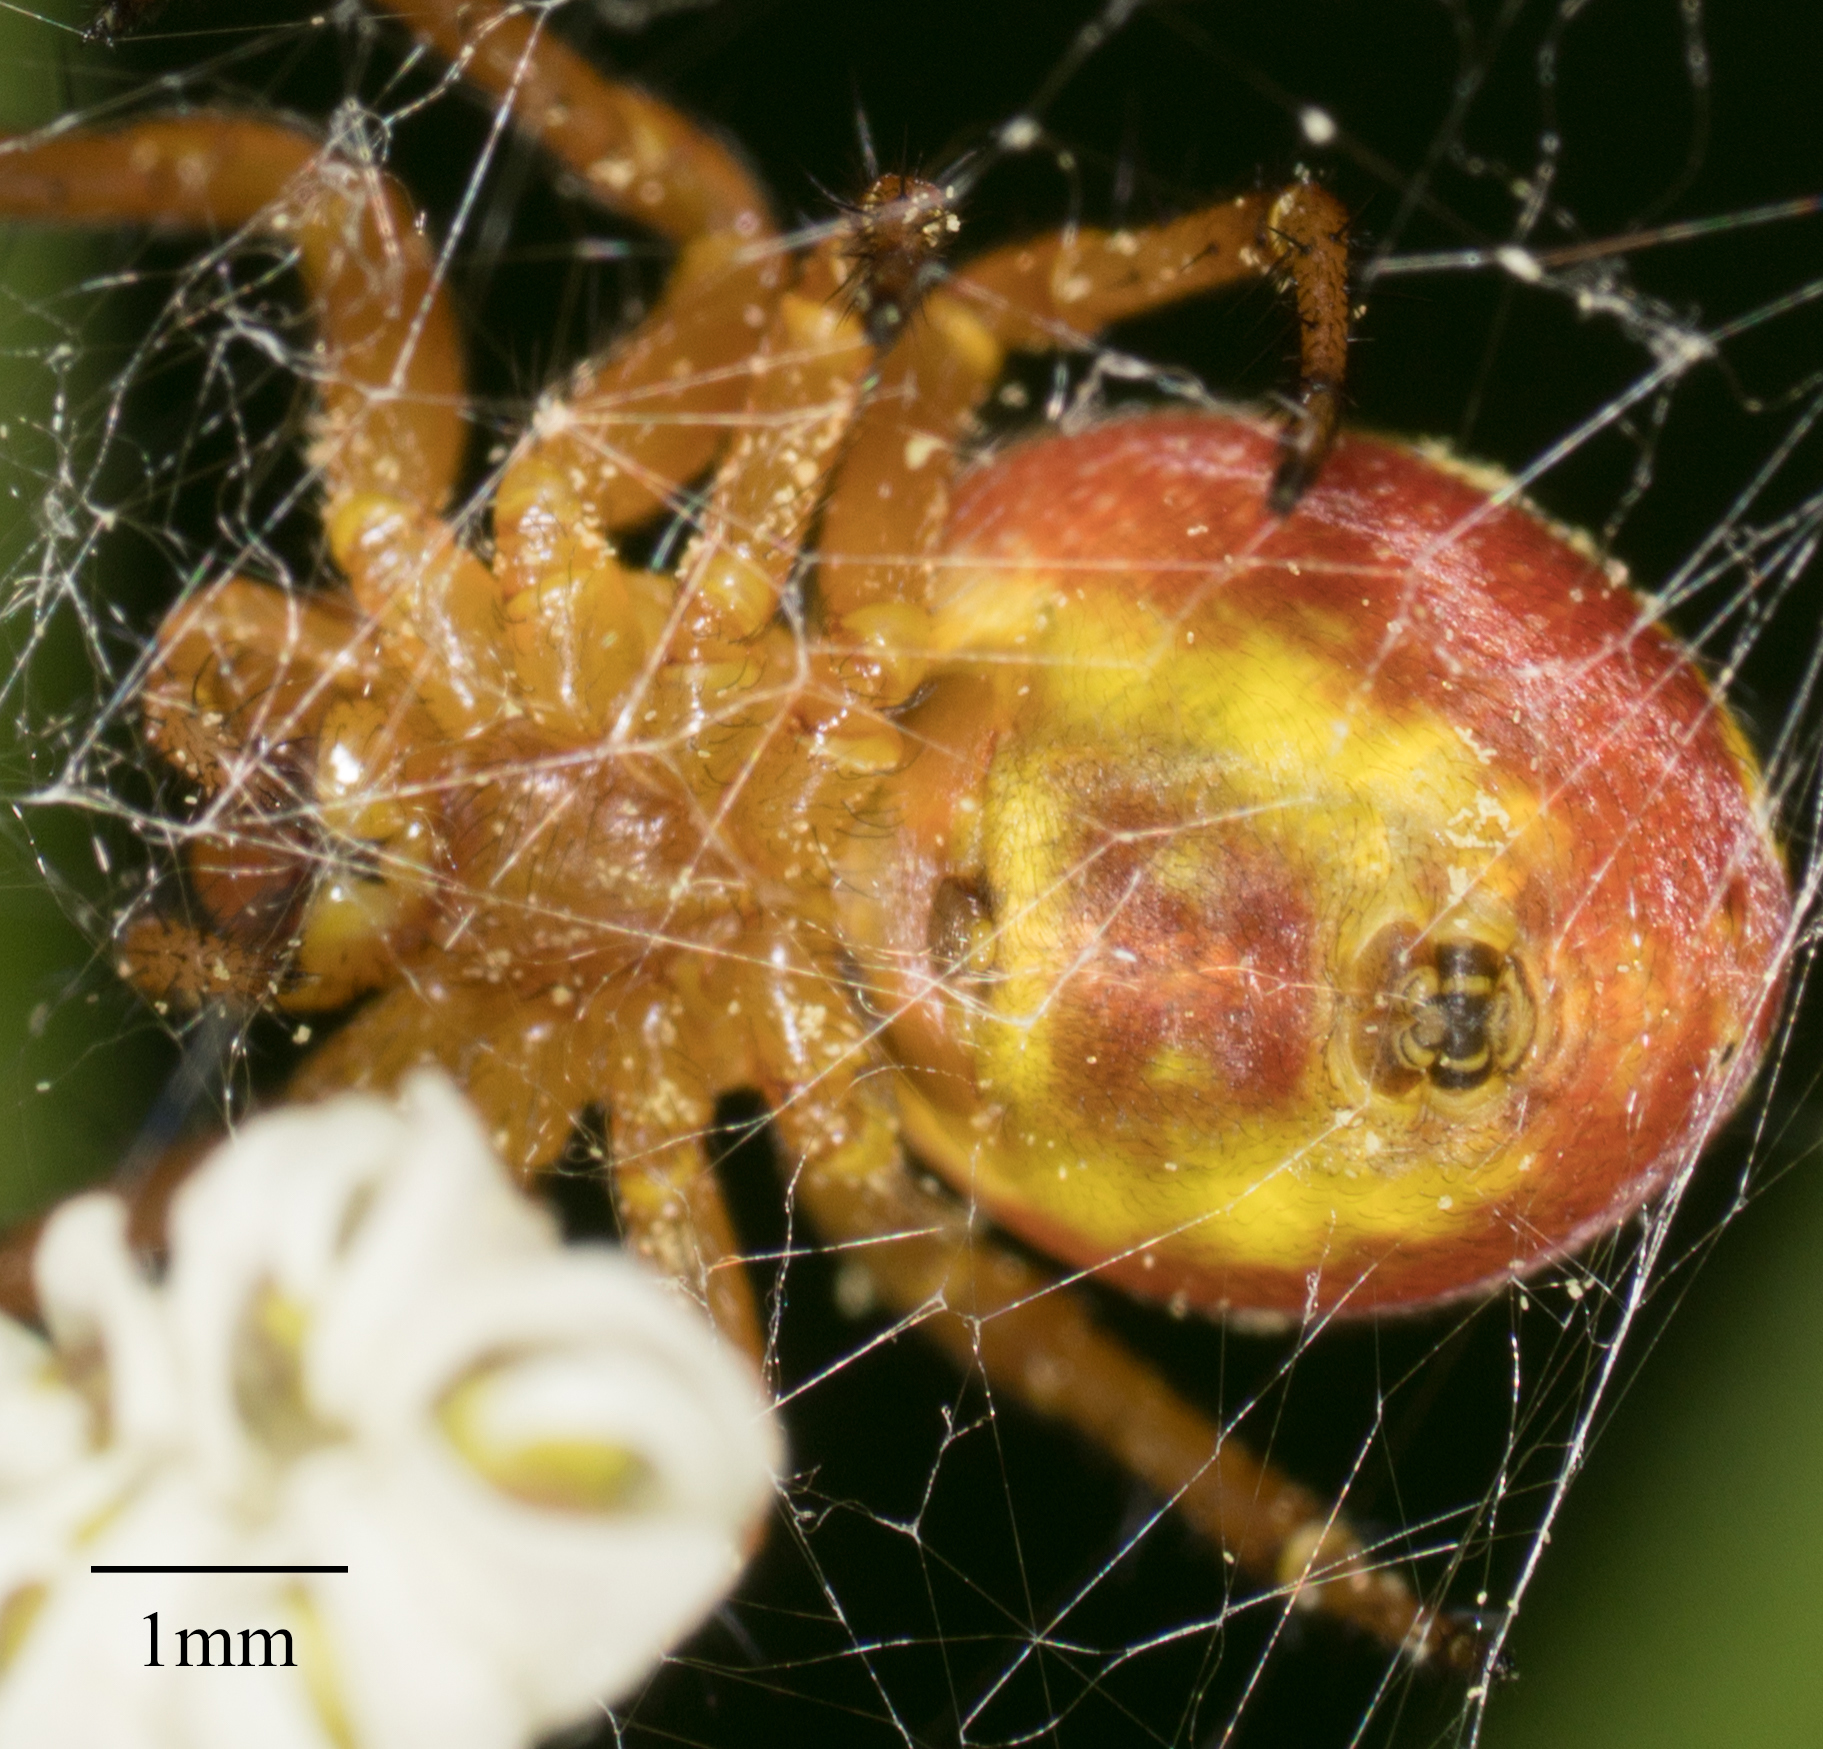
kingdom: Animalia
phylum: Arthropoda
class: Arachnida
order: Araneae
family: Araneidae
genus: Araniella
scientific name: Araniella displicata
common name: Sixspotted orb weaver
